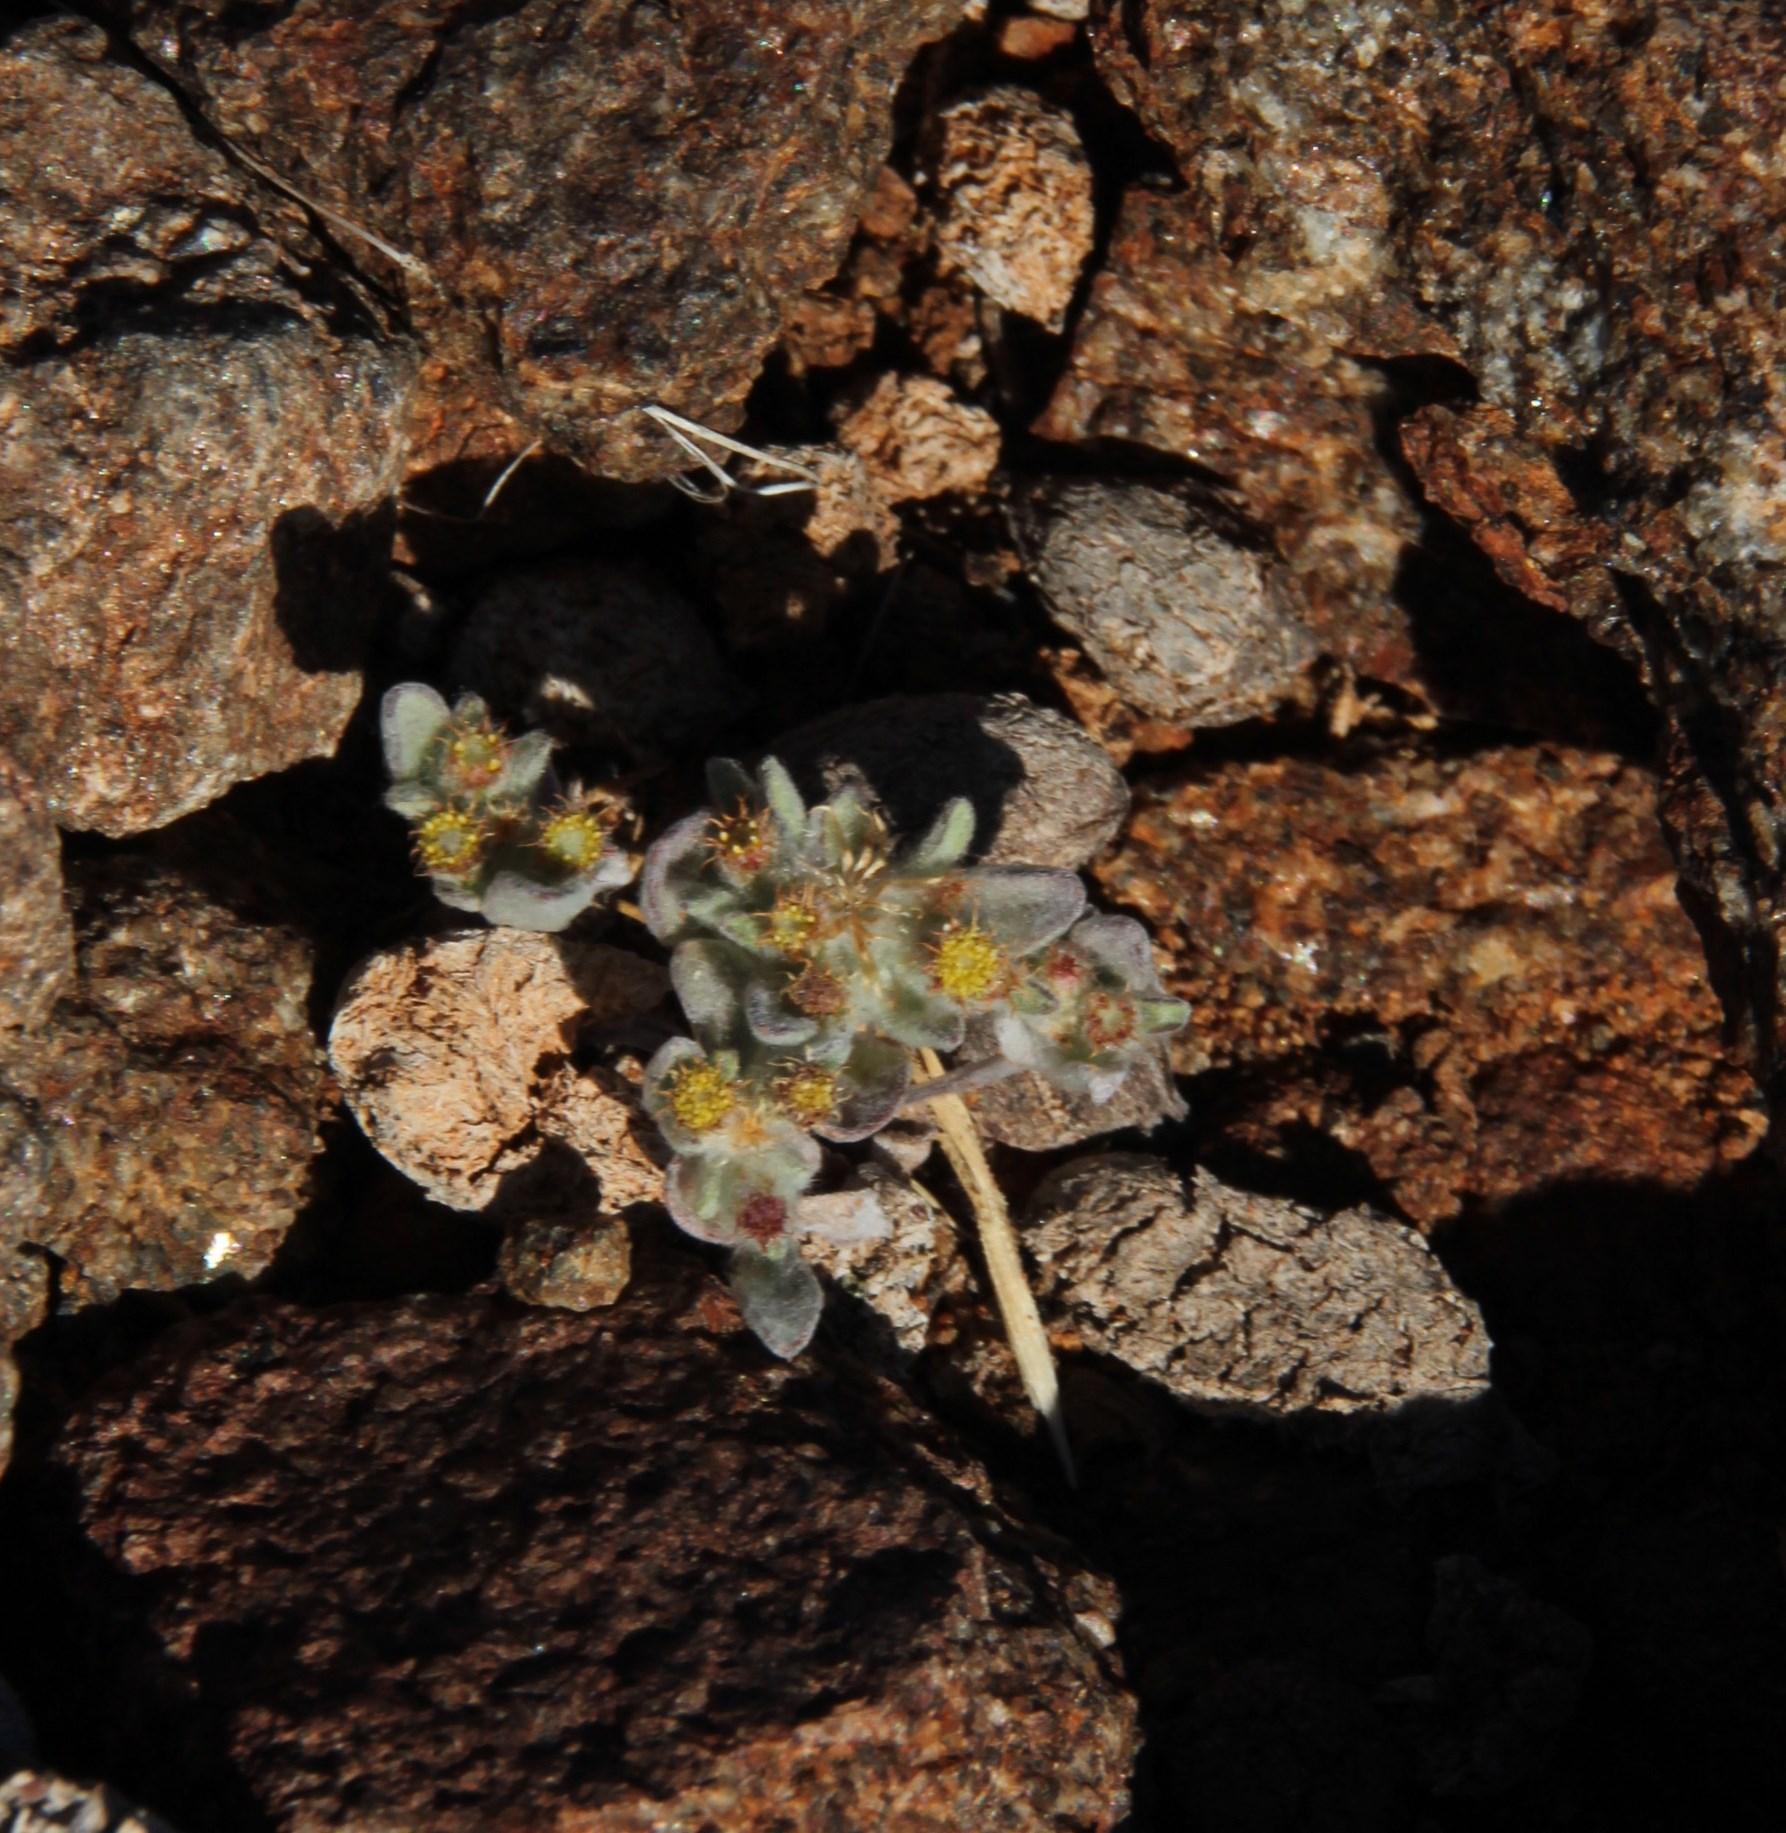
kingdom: Plantae
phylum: Tracheophyta
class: Magnoliopsida
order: Asterales
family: Asteraceae
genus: Helichrysum
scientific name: Helichrysum leontonyx
